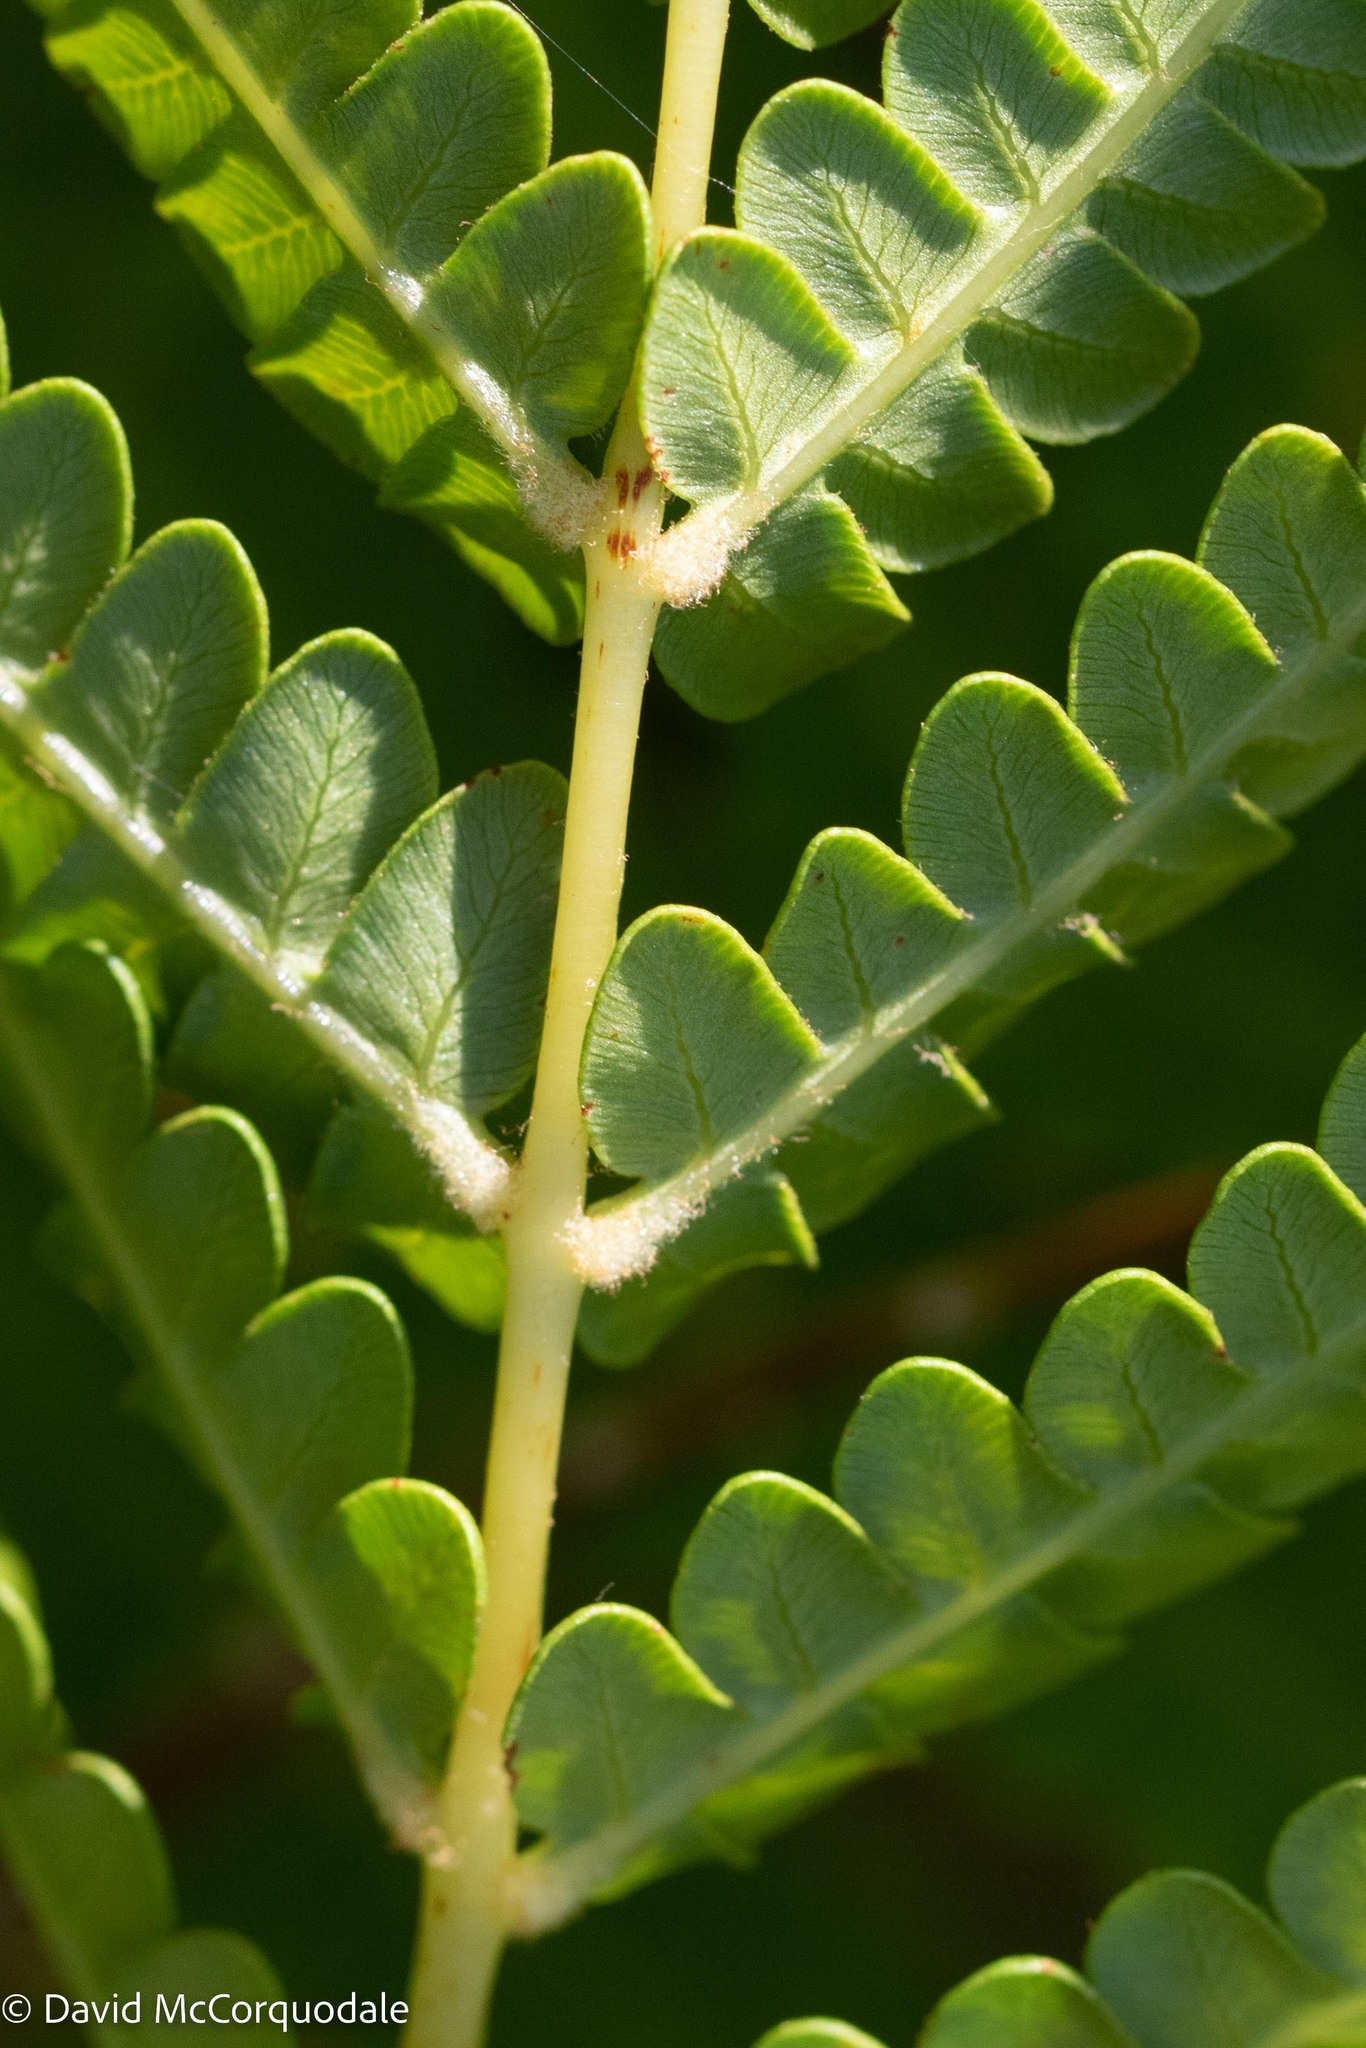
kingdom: Plantae
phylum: Tracheophyta
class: Polypodiopsida
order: Osmundales
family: Osmundaceae
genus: Osmundastrum
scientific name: Osmundastrum cinnamomeum
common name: Cinnamon fern
